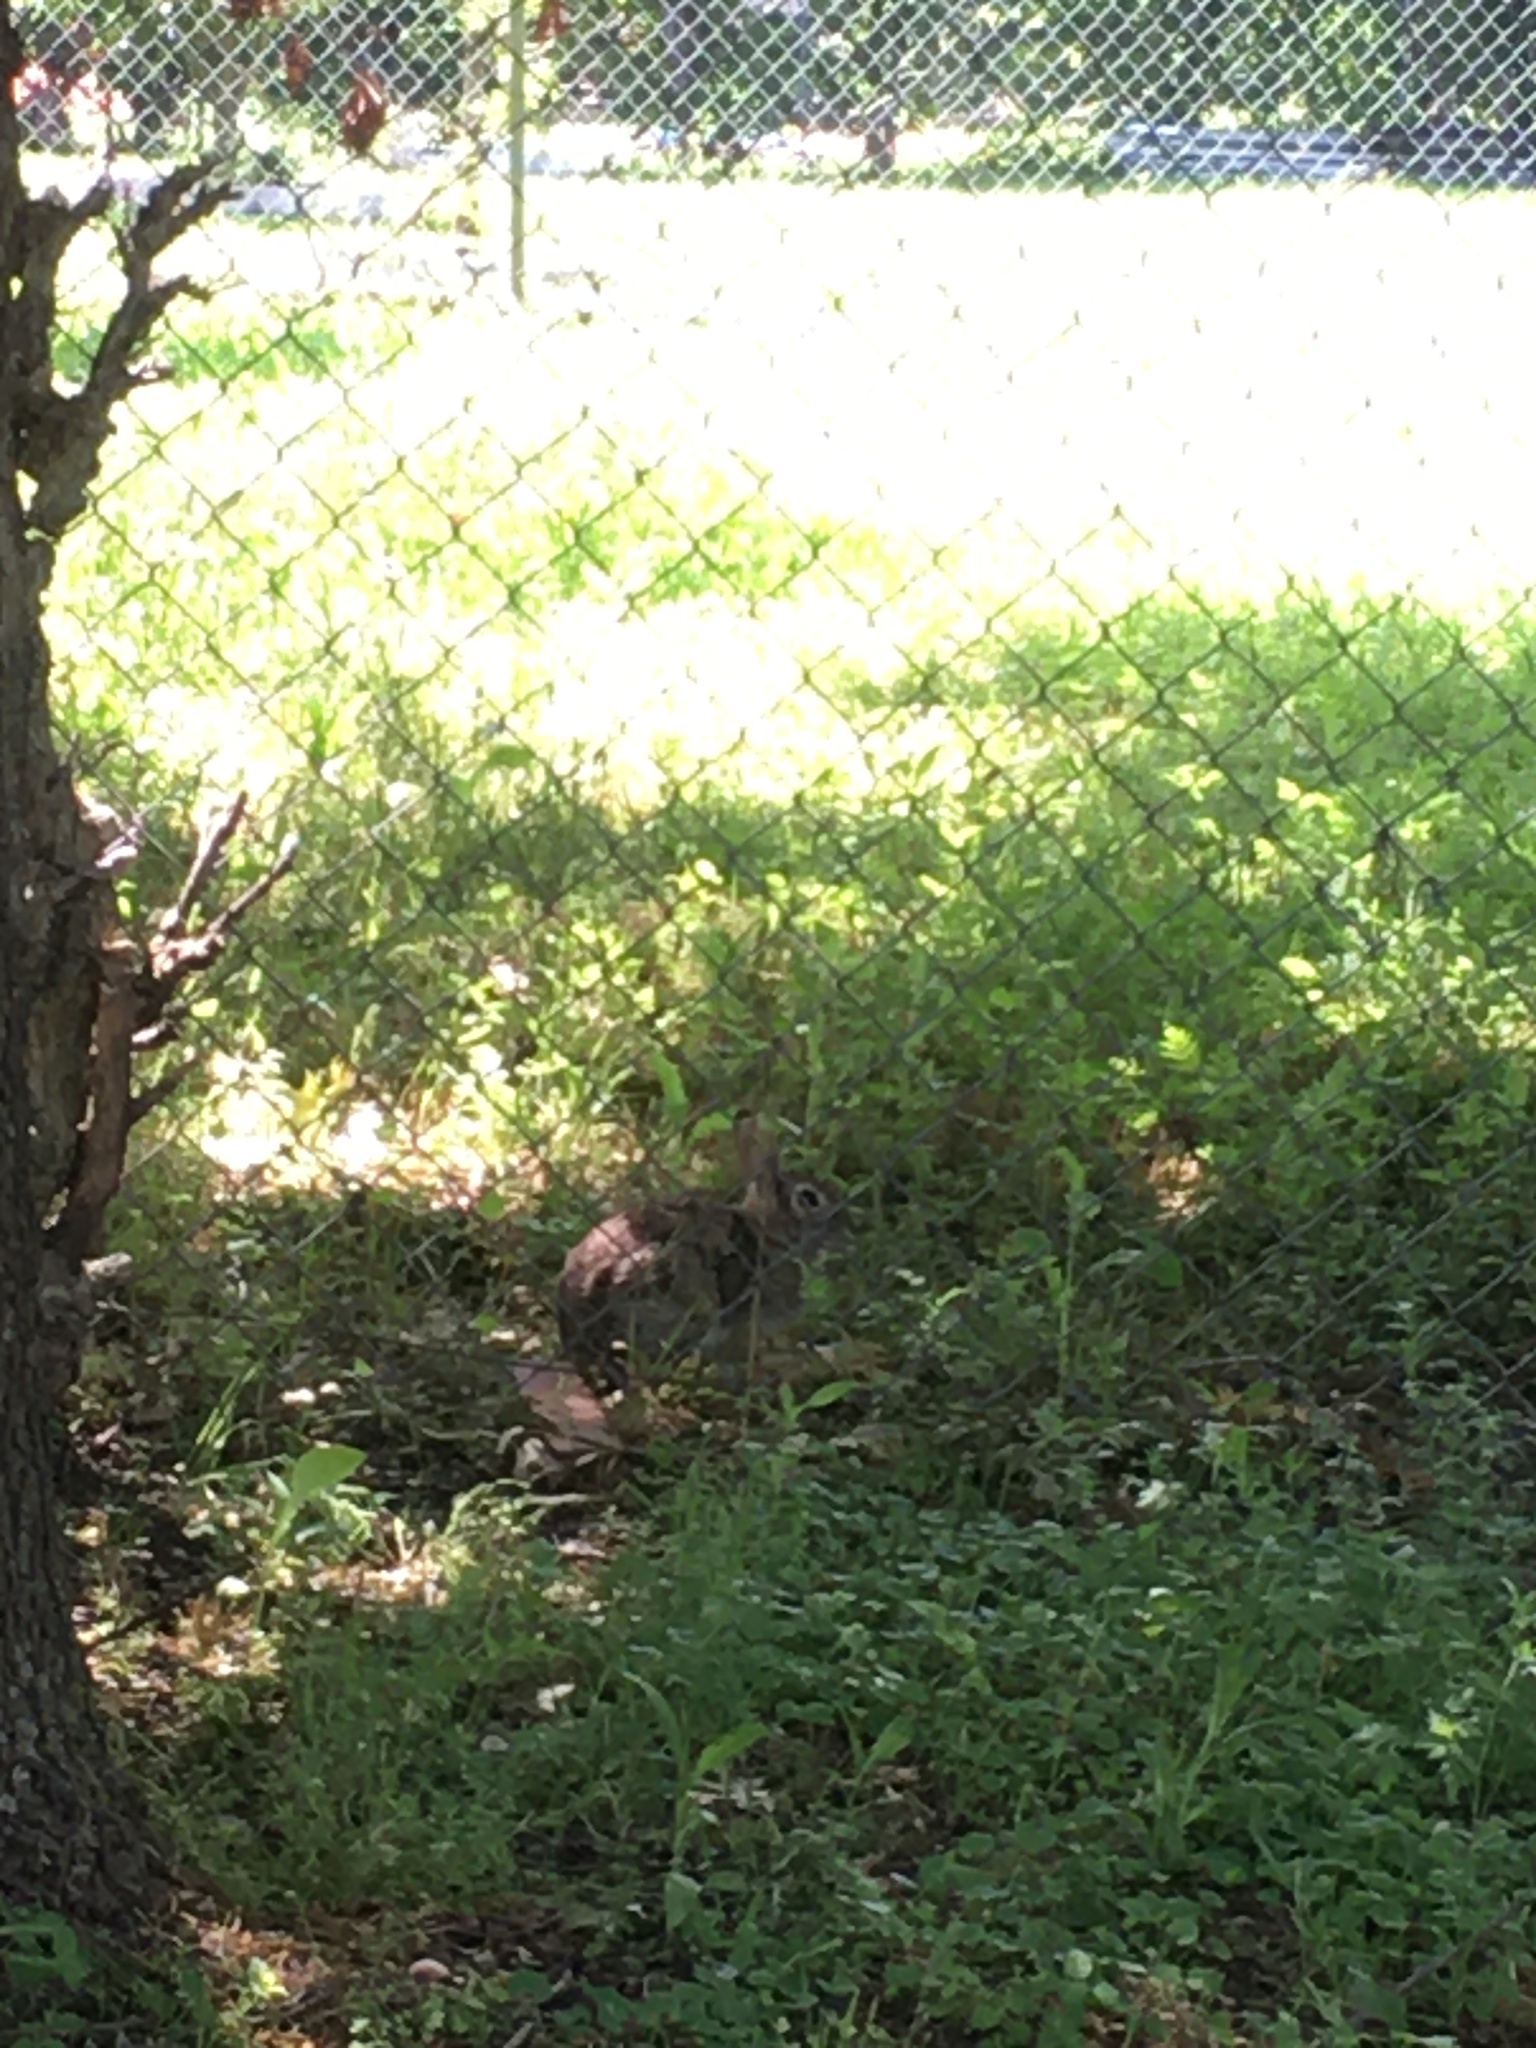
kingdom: Animalia
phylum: Chordata
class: Mammalia
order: Lagomorpha
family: Leporidae
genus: Sylvilagus
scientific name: Sylvilagus floridanus
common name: Eastern cottontail
